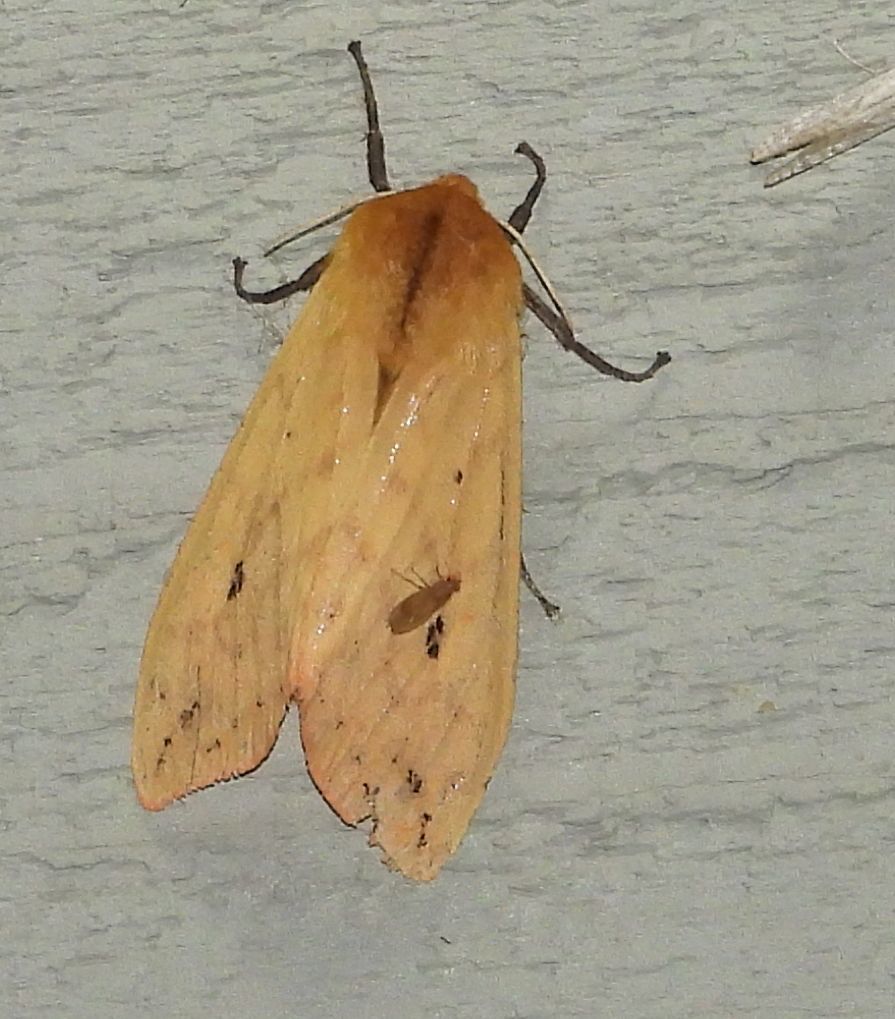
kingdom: Animalia
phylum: Arthropoda
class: Insecta
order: Lepidoptera
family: Erebidae
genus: Pyrrharctia
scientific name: Pyrrharctia isabella
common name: Isabella tiger moth
